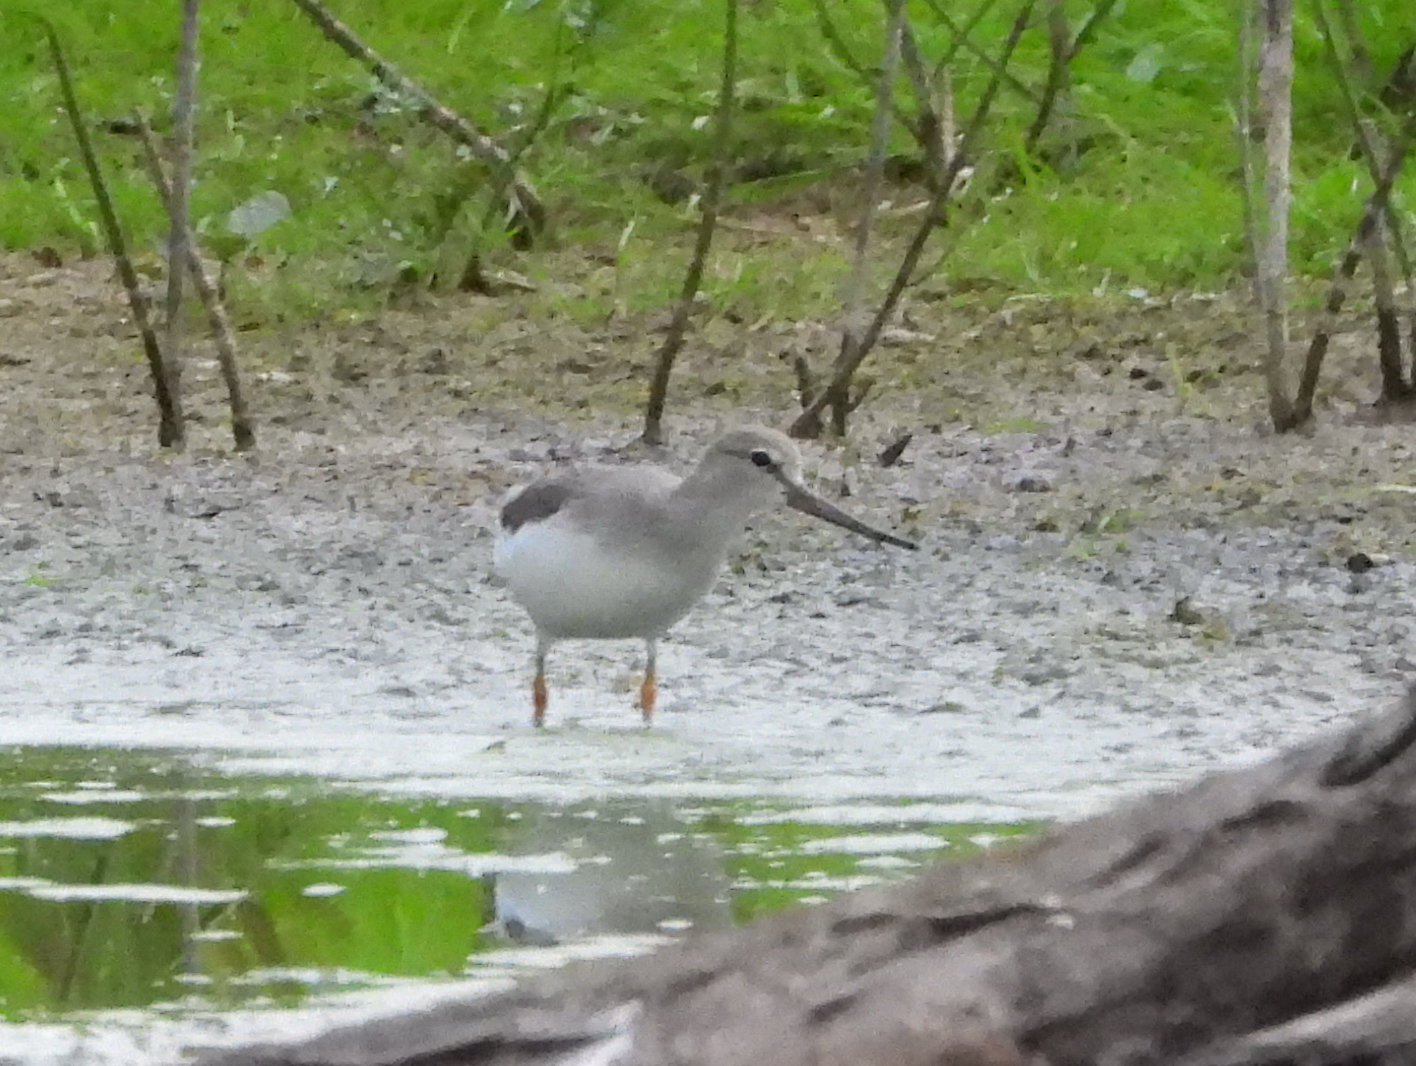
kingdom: Animalia
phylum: Chordata
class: Aves
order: Charadriiformes
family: Scolopacidae
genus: Xenus
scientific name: Xenus cinereus
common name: Terek sandpiper
